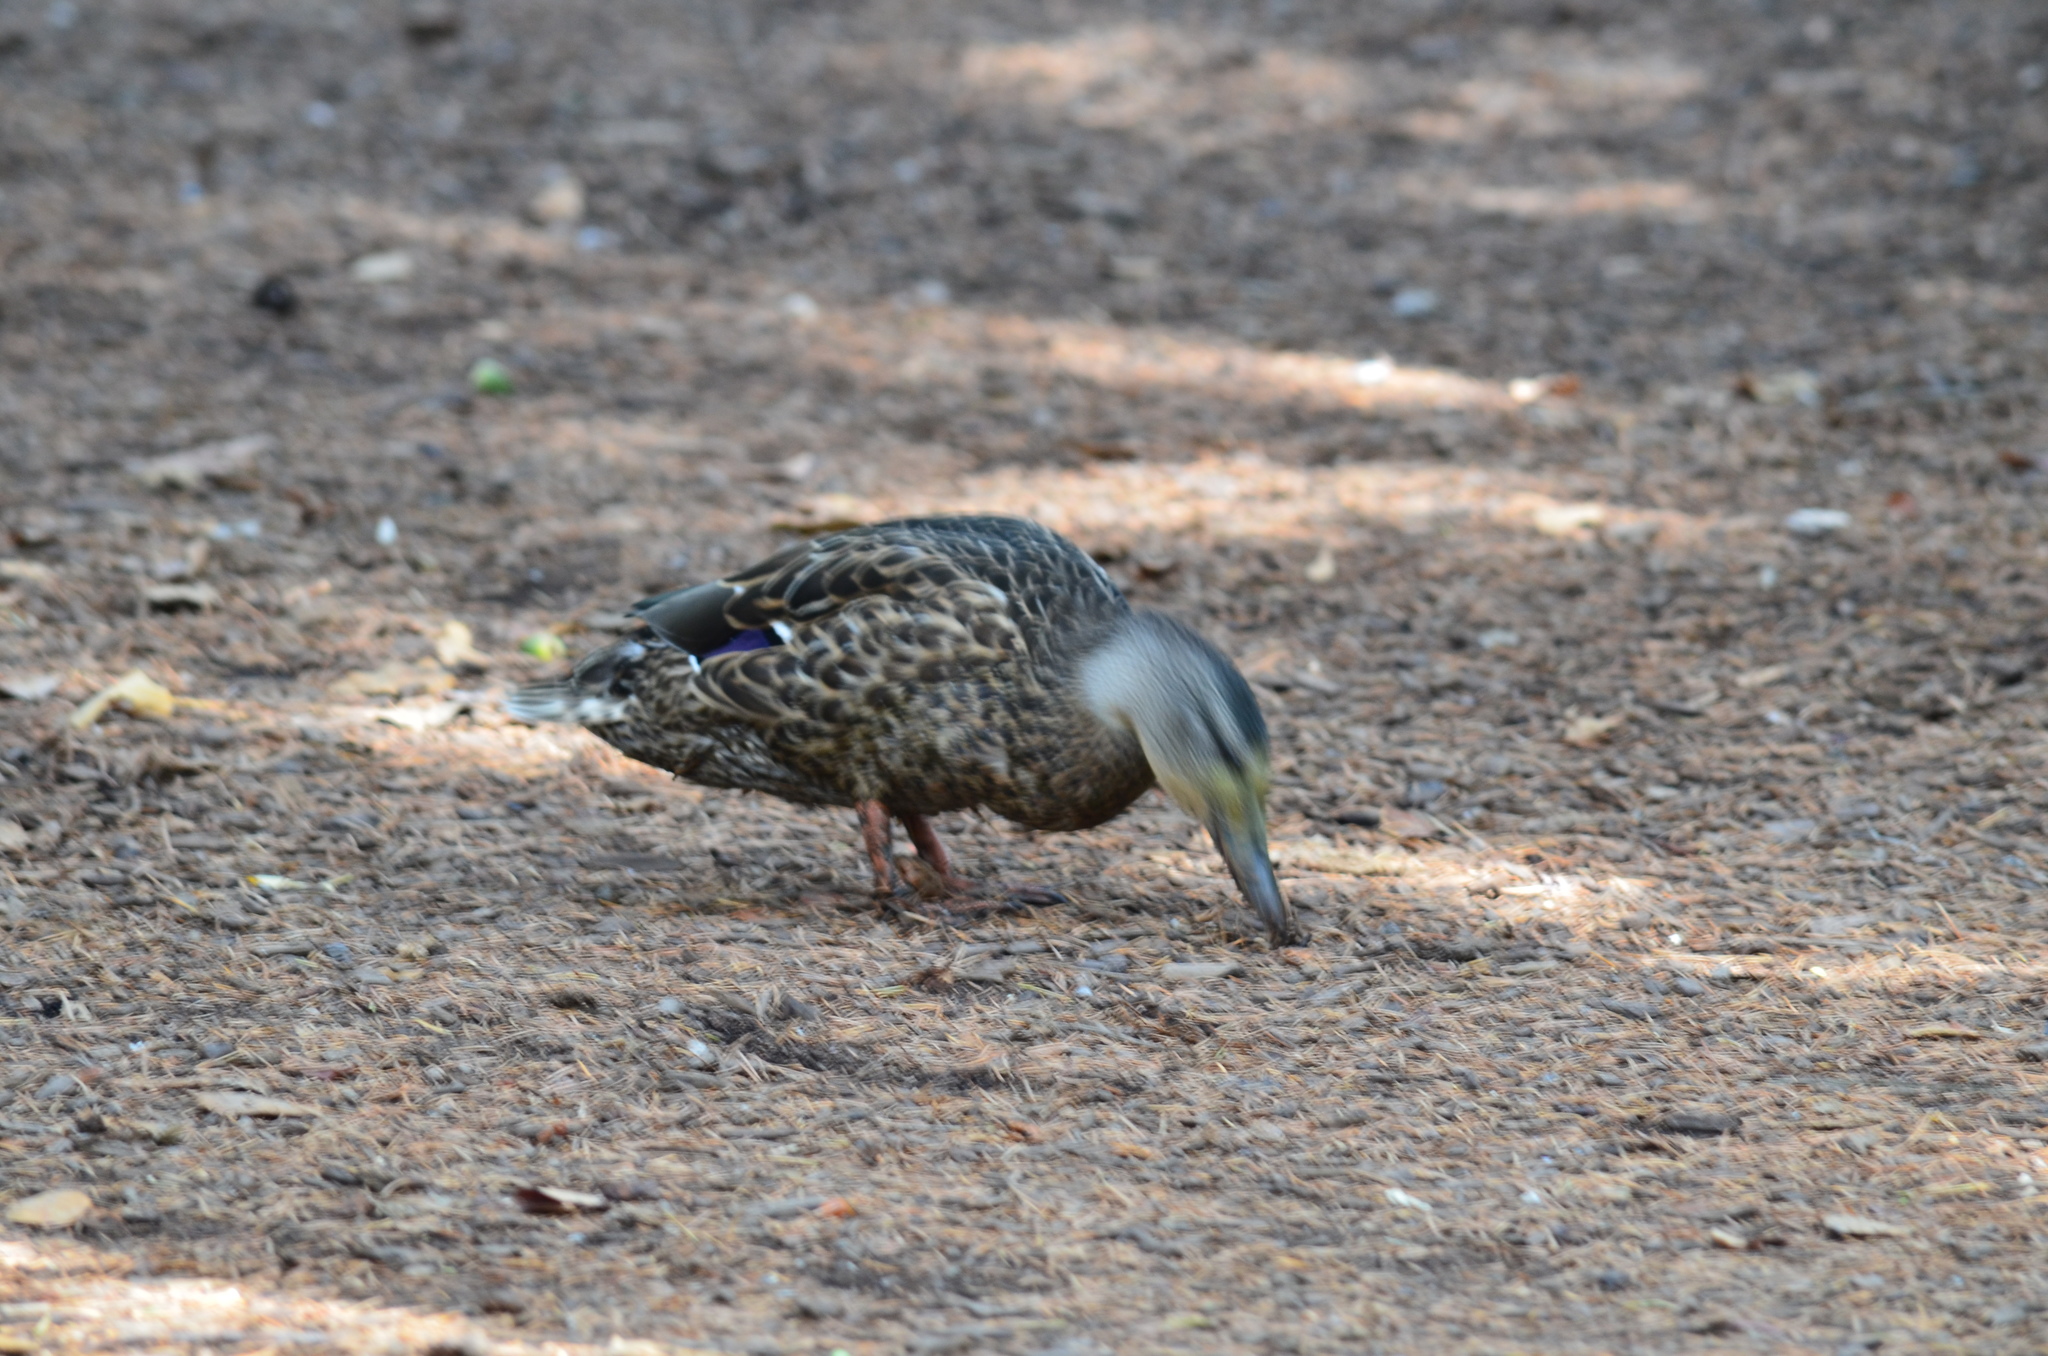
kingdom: Animalia
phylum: Chordata
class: Aves
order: Anseriformes
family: Anatidae
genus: Anas
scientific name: Anas platyrhynchos
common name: Mallard
